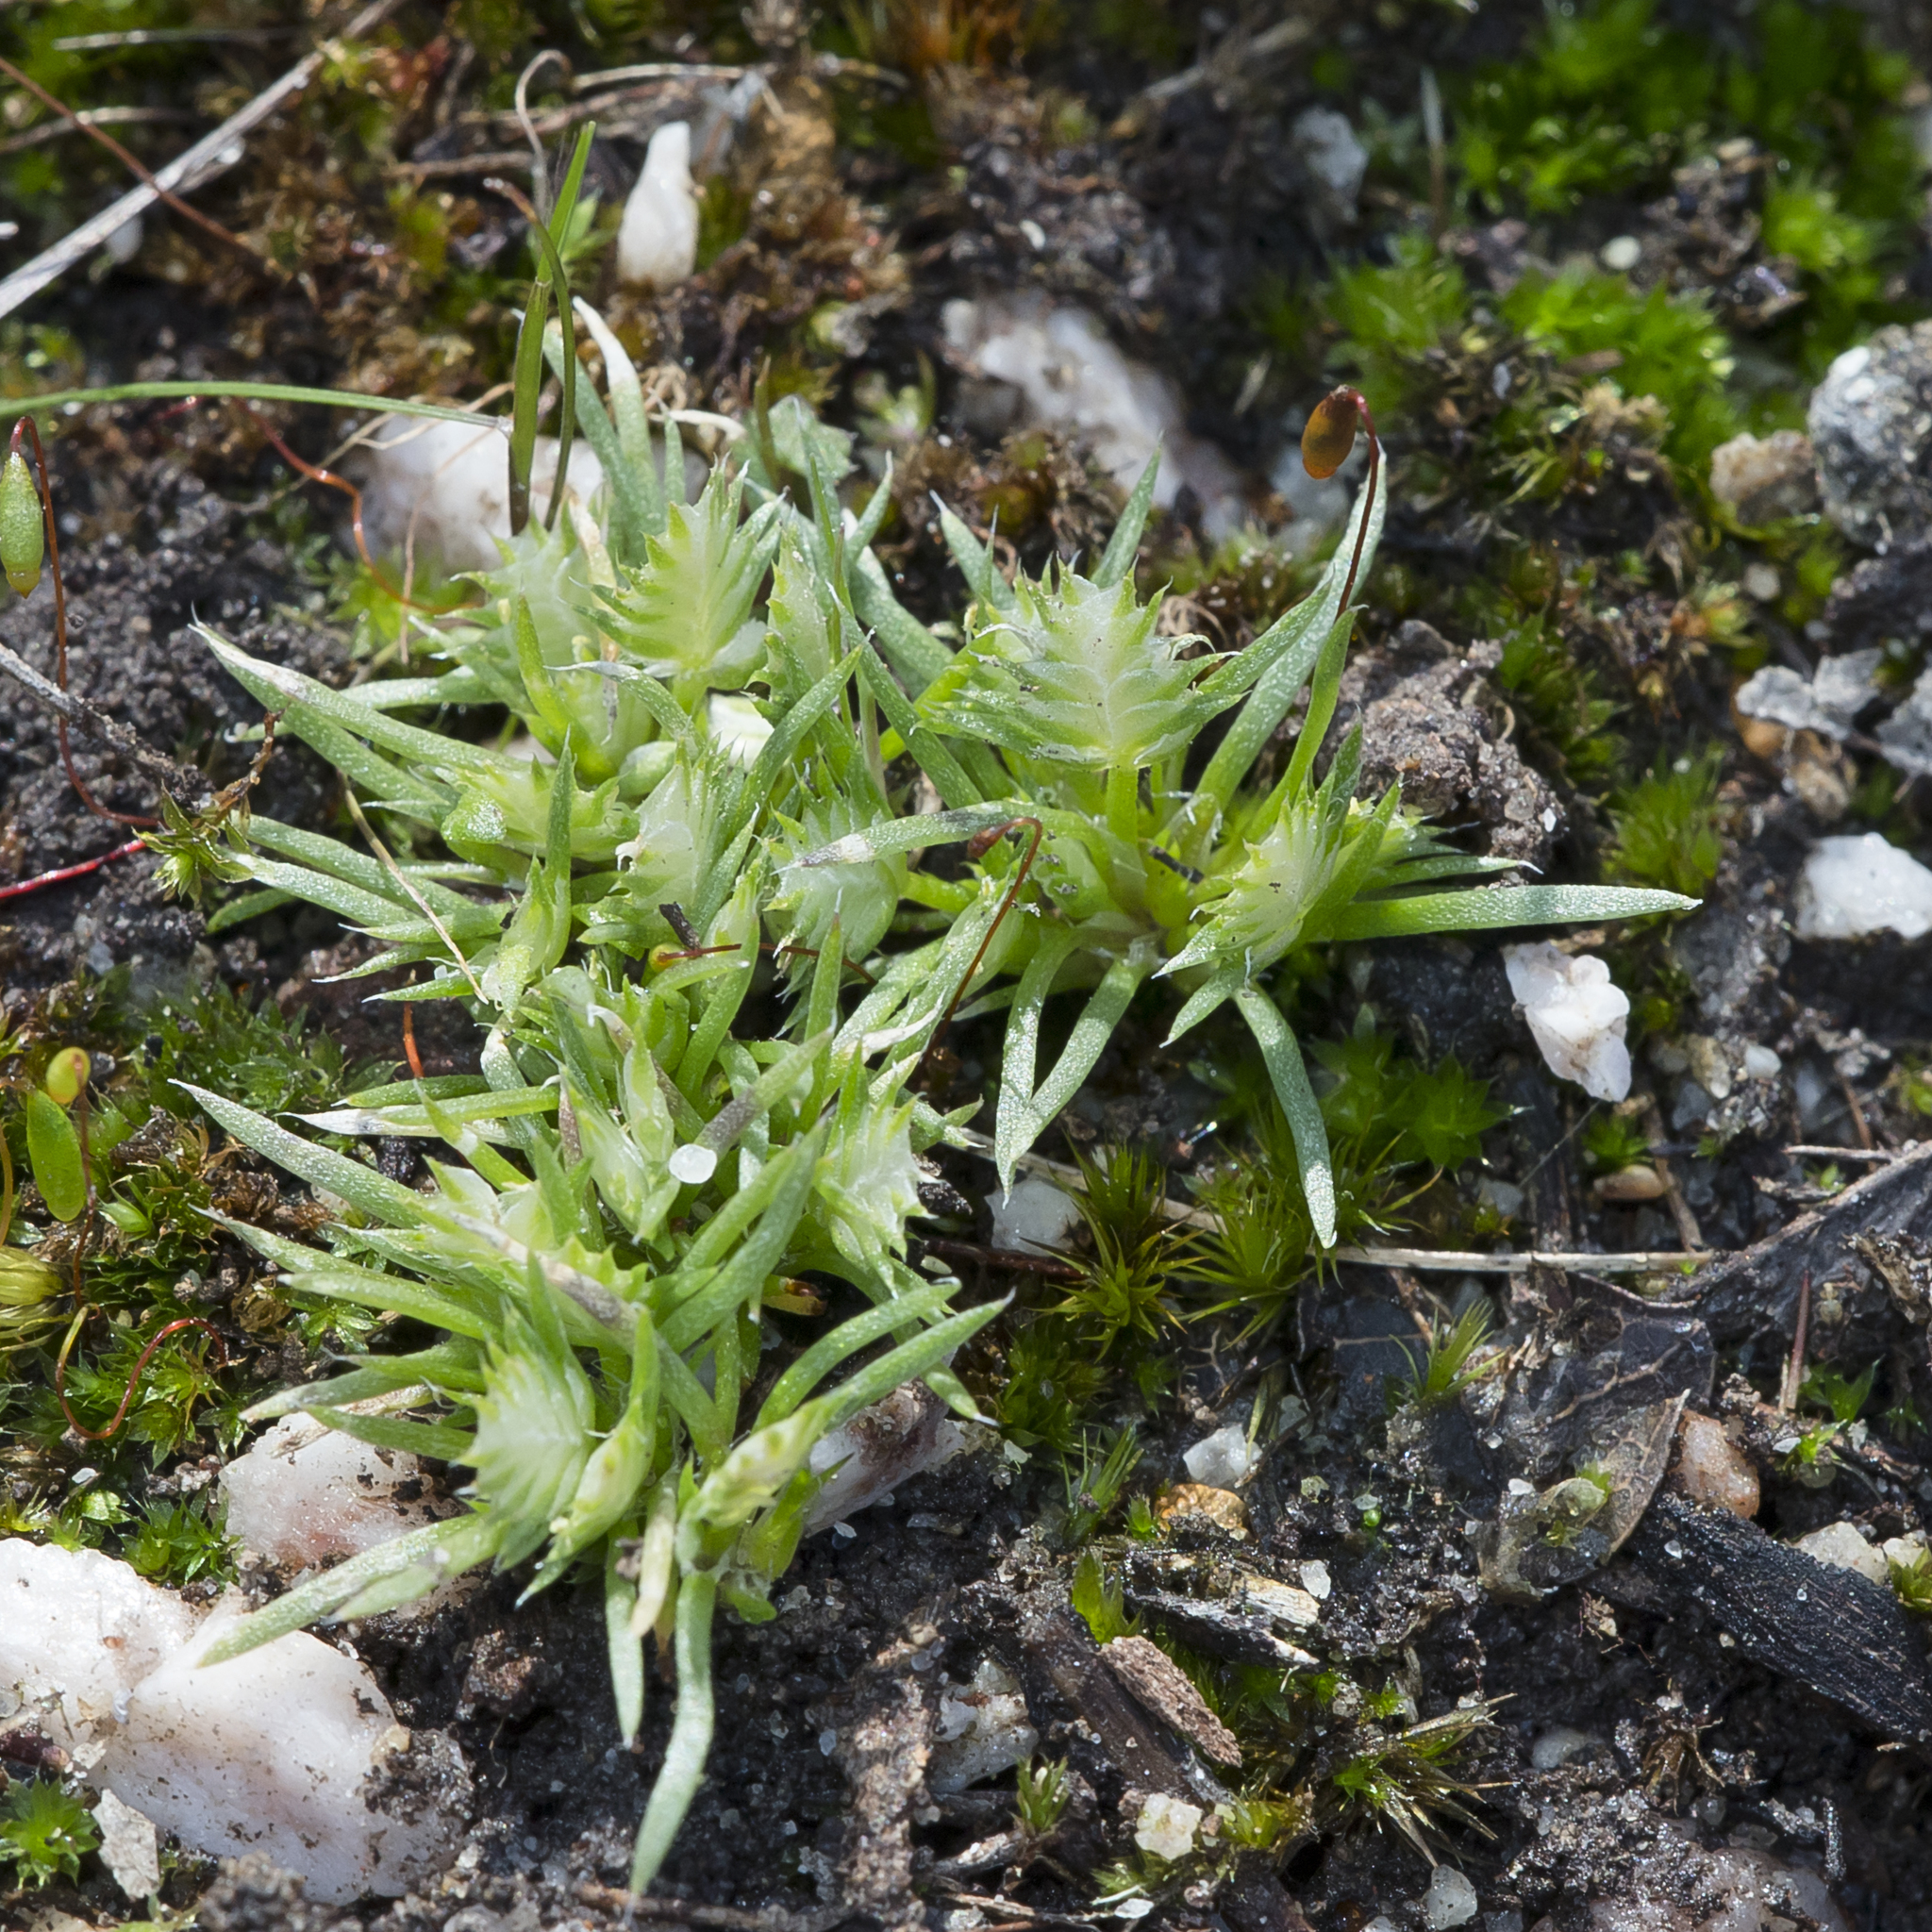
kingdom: Plantae
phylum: Tracheophyta
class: Liliopsida
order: Poales
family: Restionaceae
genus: Aphelia
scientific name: Aphelia pumilio
